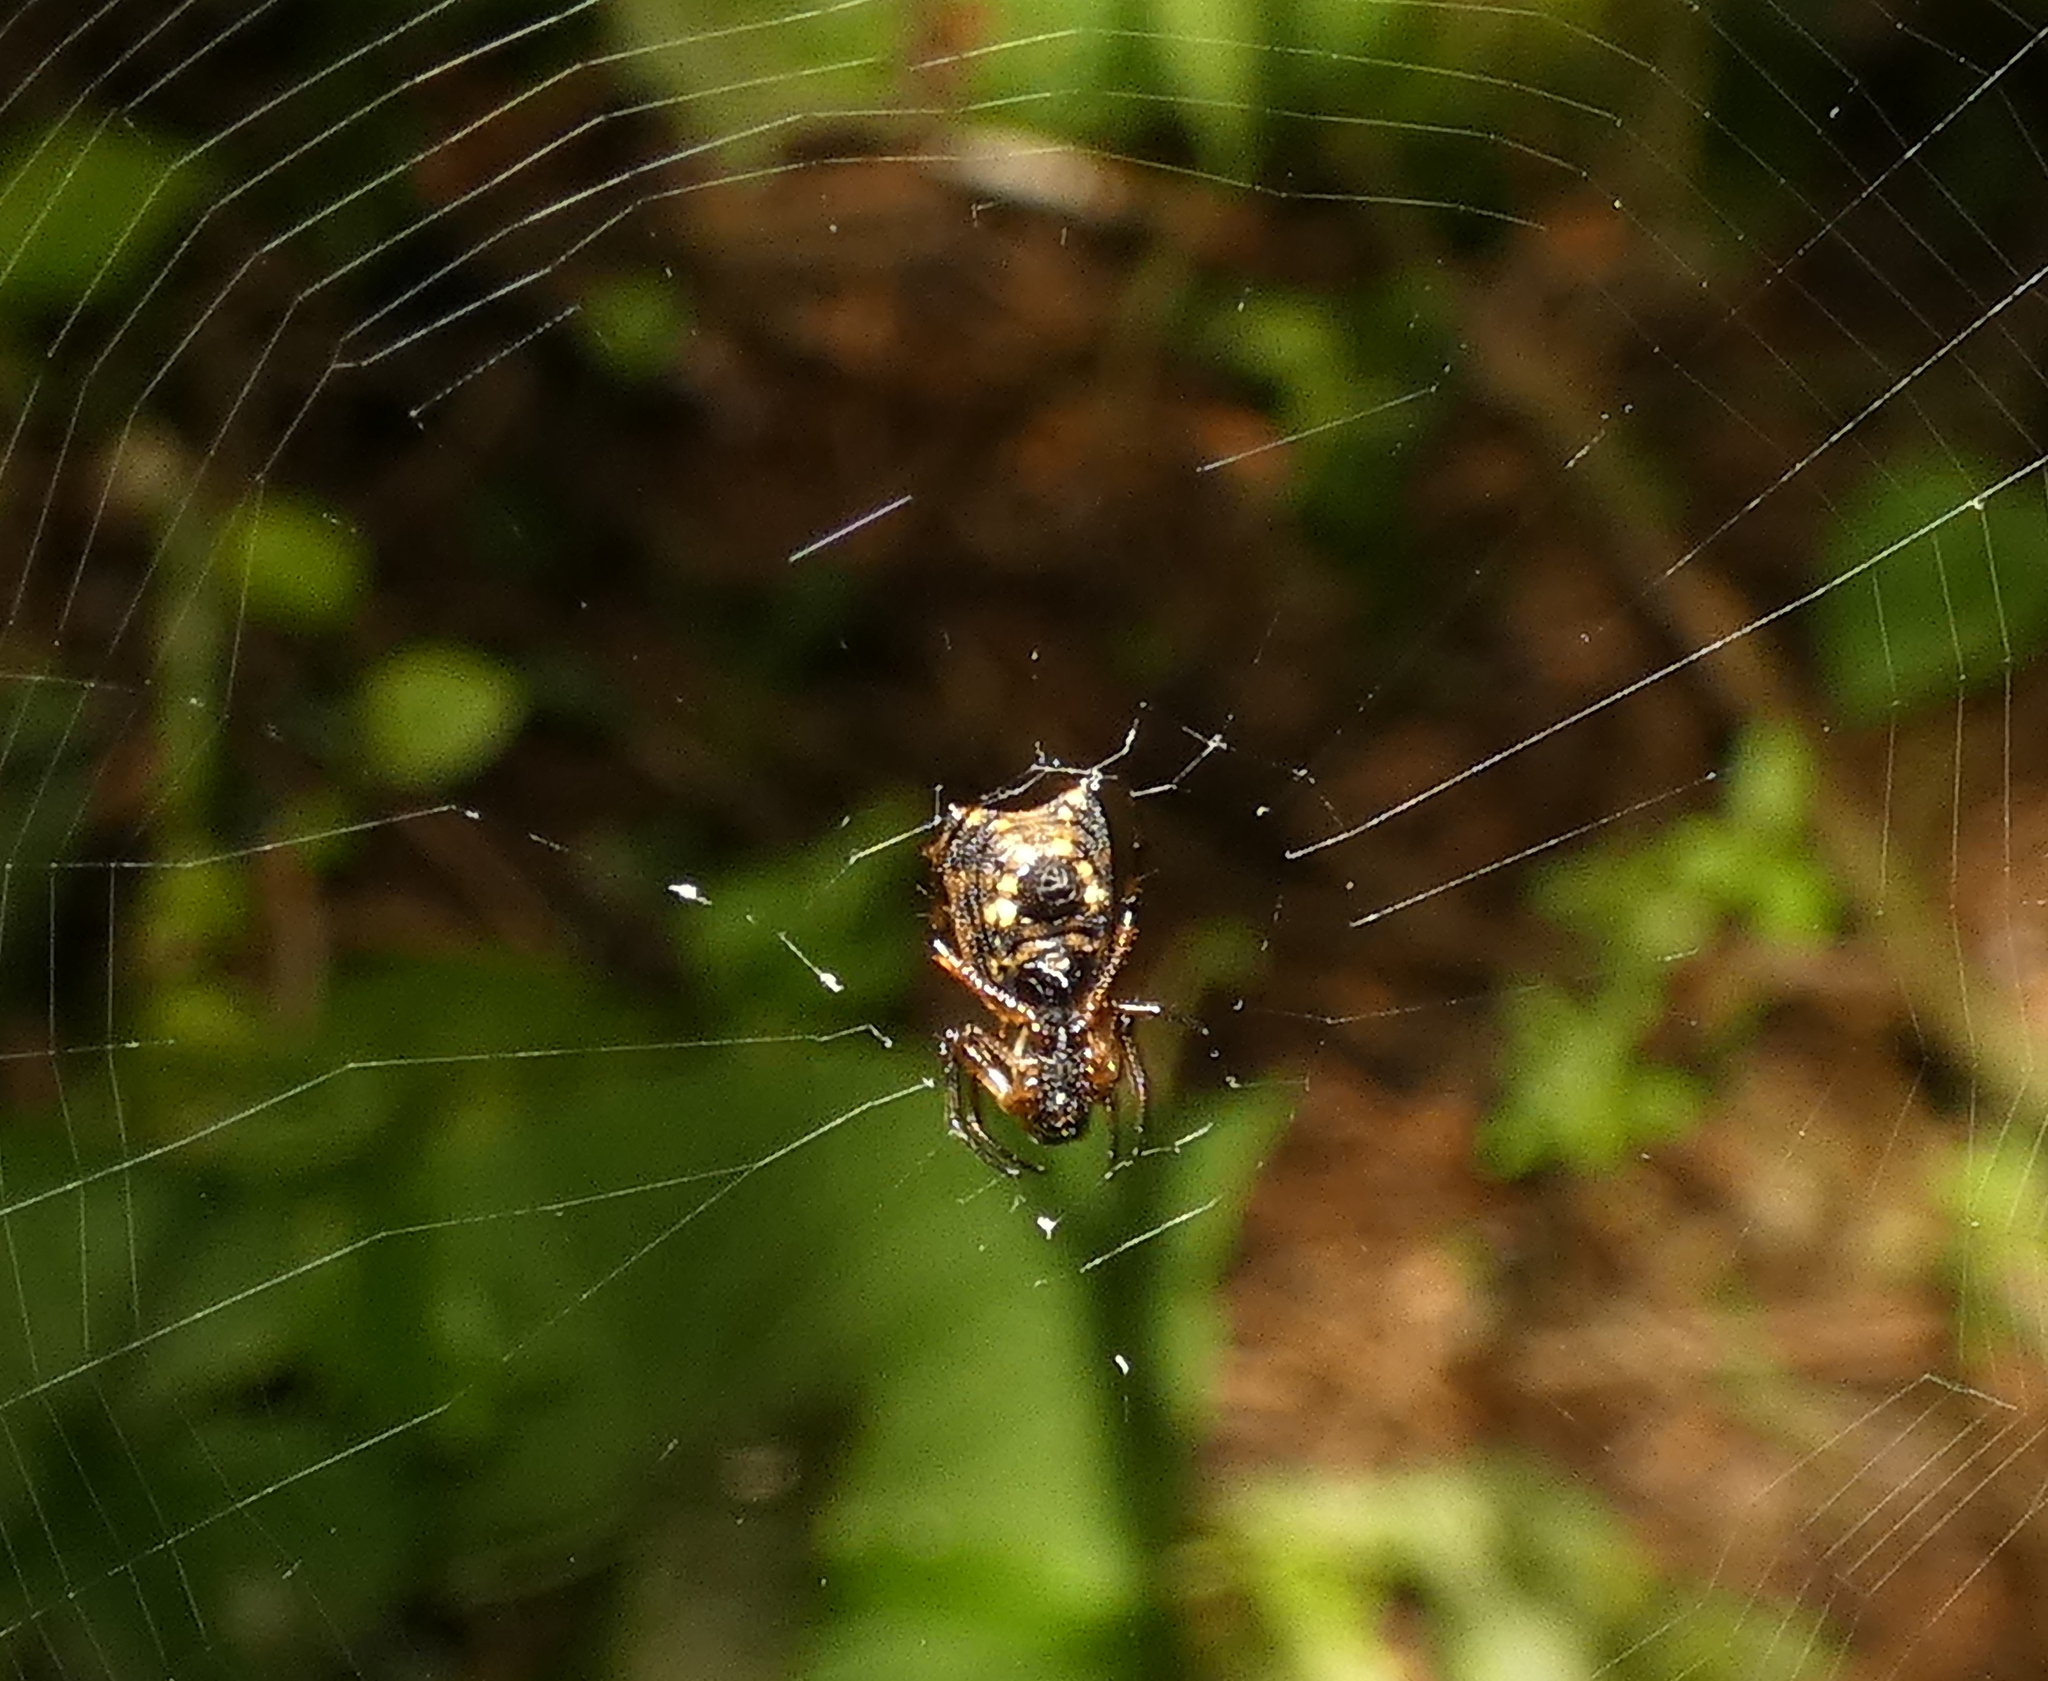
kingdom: Animalia
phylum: Arthropoda
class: Arachnida
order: Araneae
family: Araneidae
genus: Micrathena
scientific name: Micrathena picta
